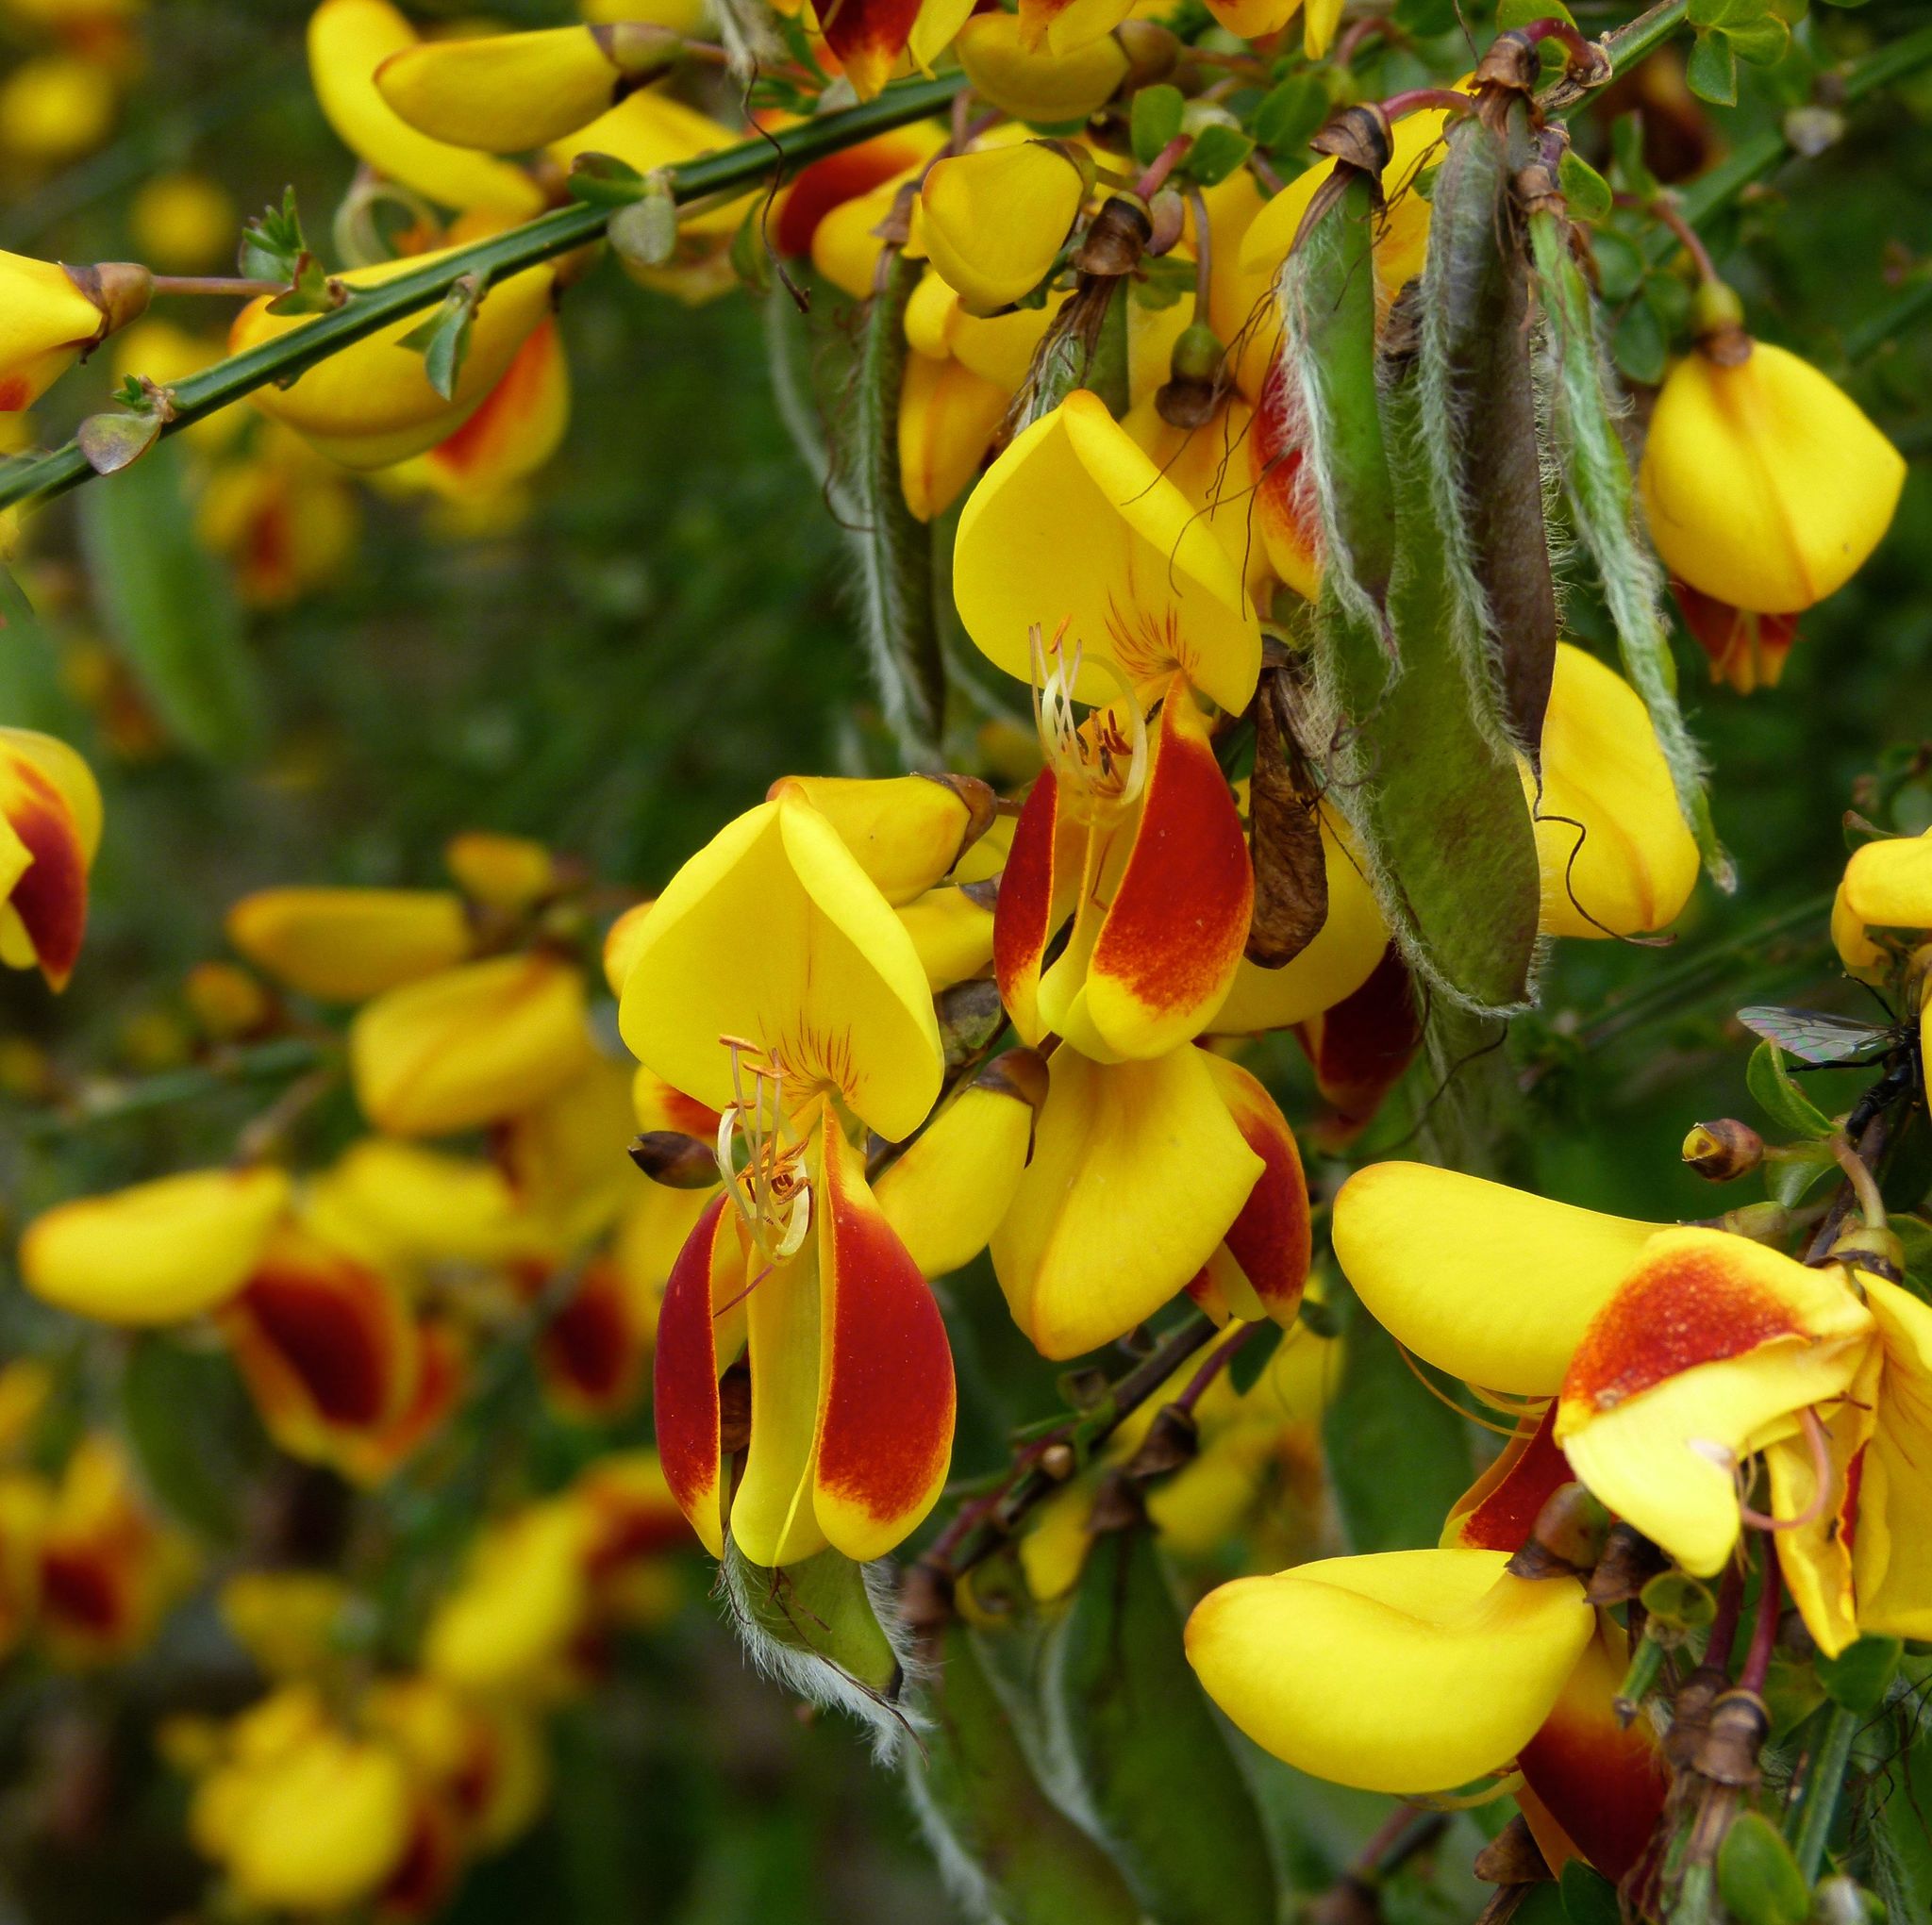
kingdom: Plantae
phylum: Tracheophyta
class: Magnoliopsida
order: Fabales
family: Fabaceae
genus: Cytisus
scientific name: Cytisus scoparius
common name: Scotch broom
